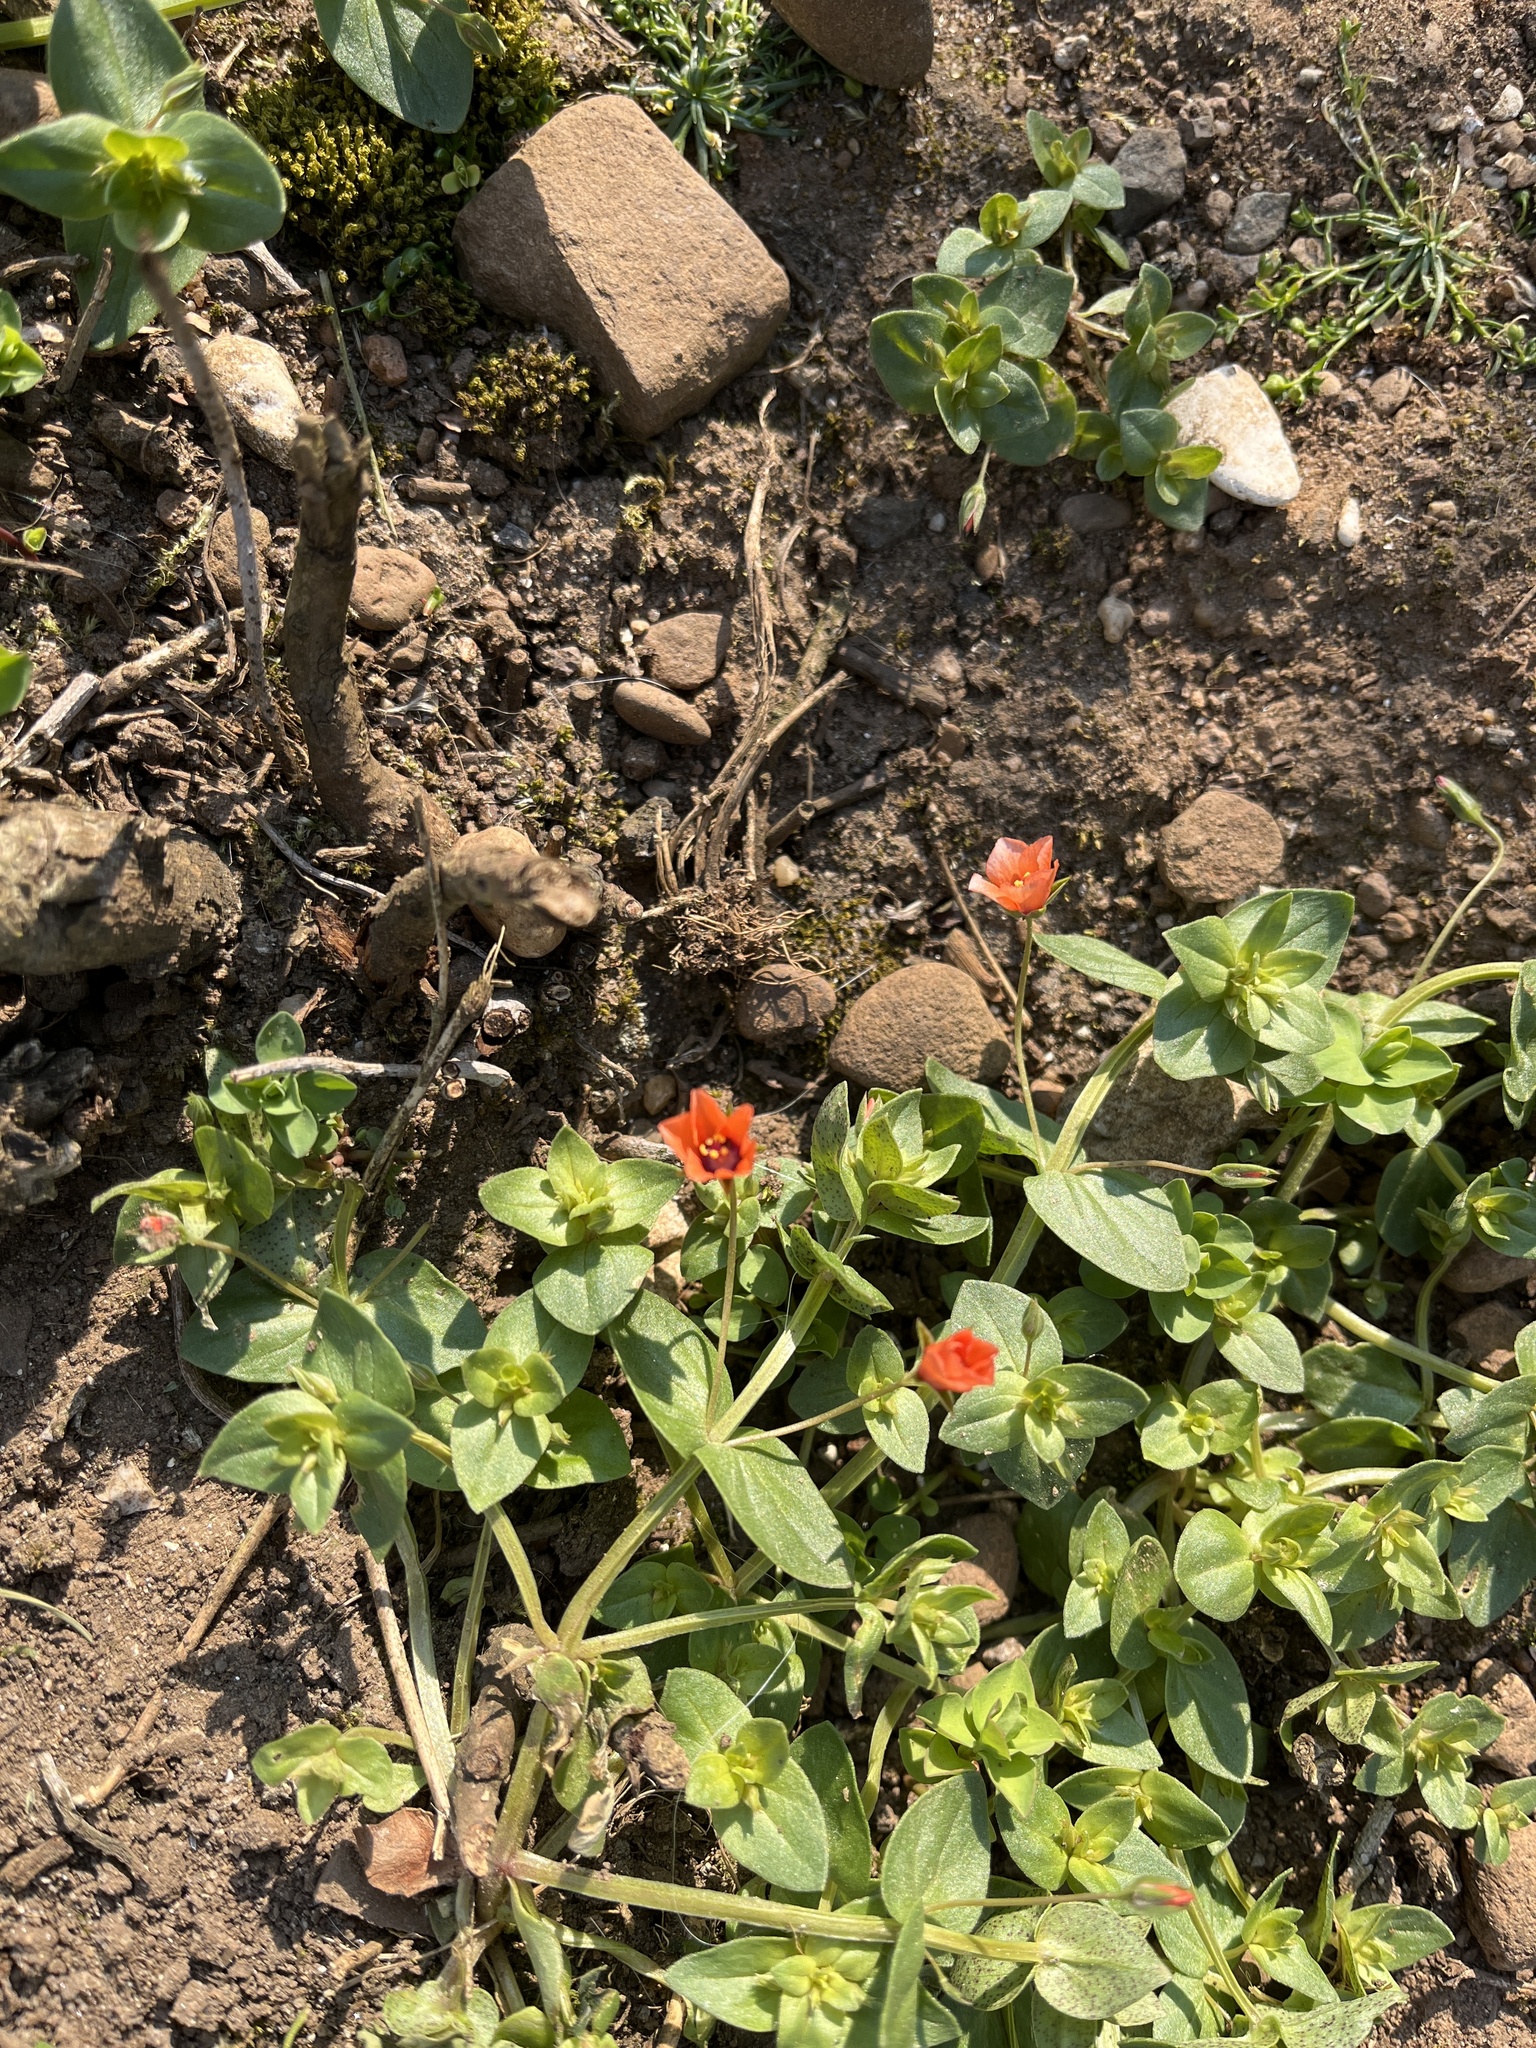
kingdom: Plantae
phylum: Tracheophyta
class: Magnoliopsida
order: Ericales
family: Primulaceae
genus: Lysimachia
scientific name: Lysimachia arvensis
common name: Scarlet pimpernel
